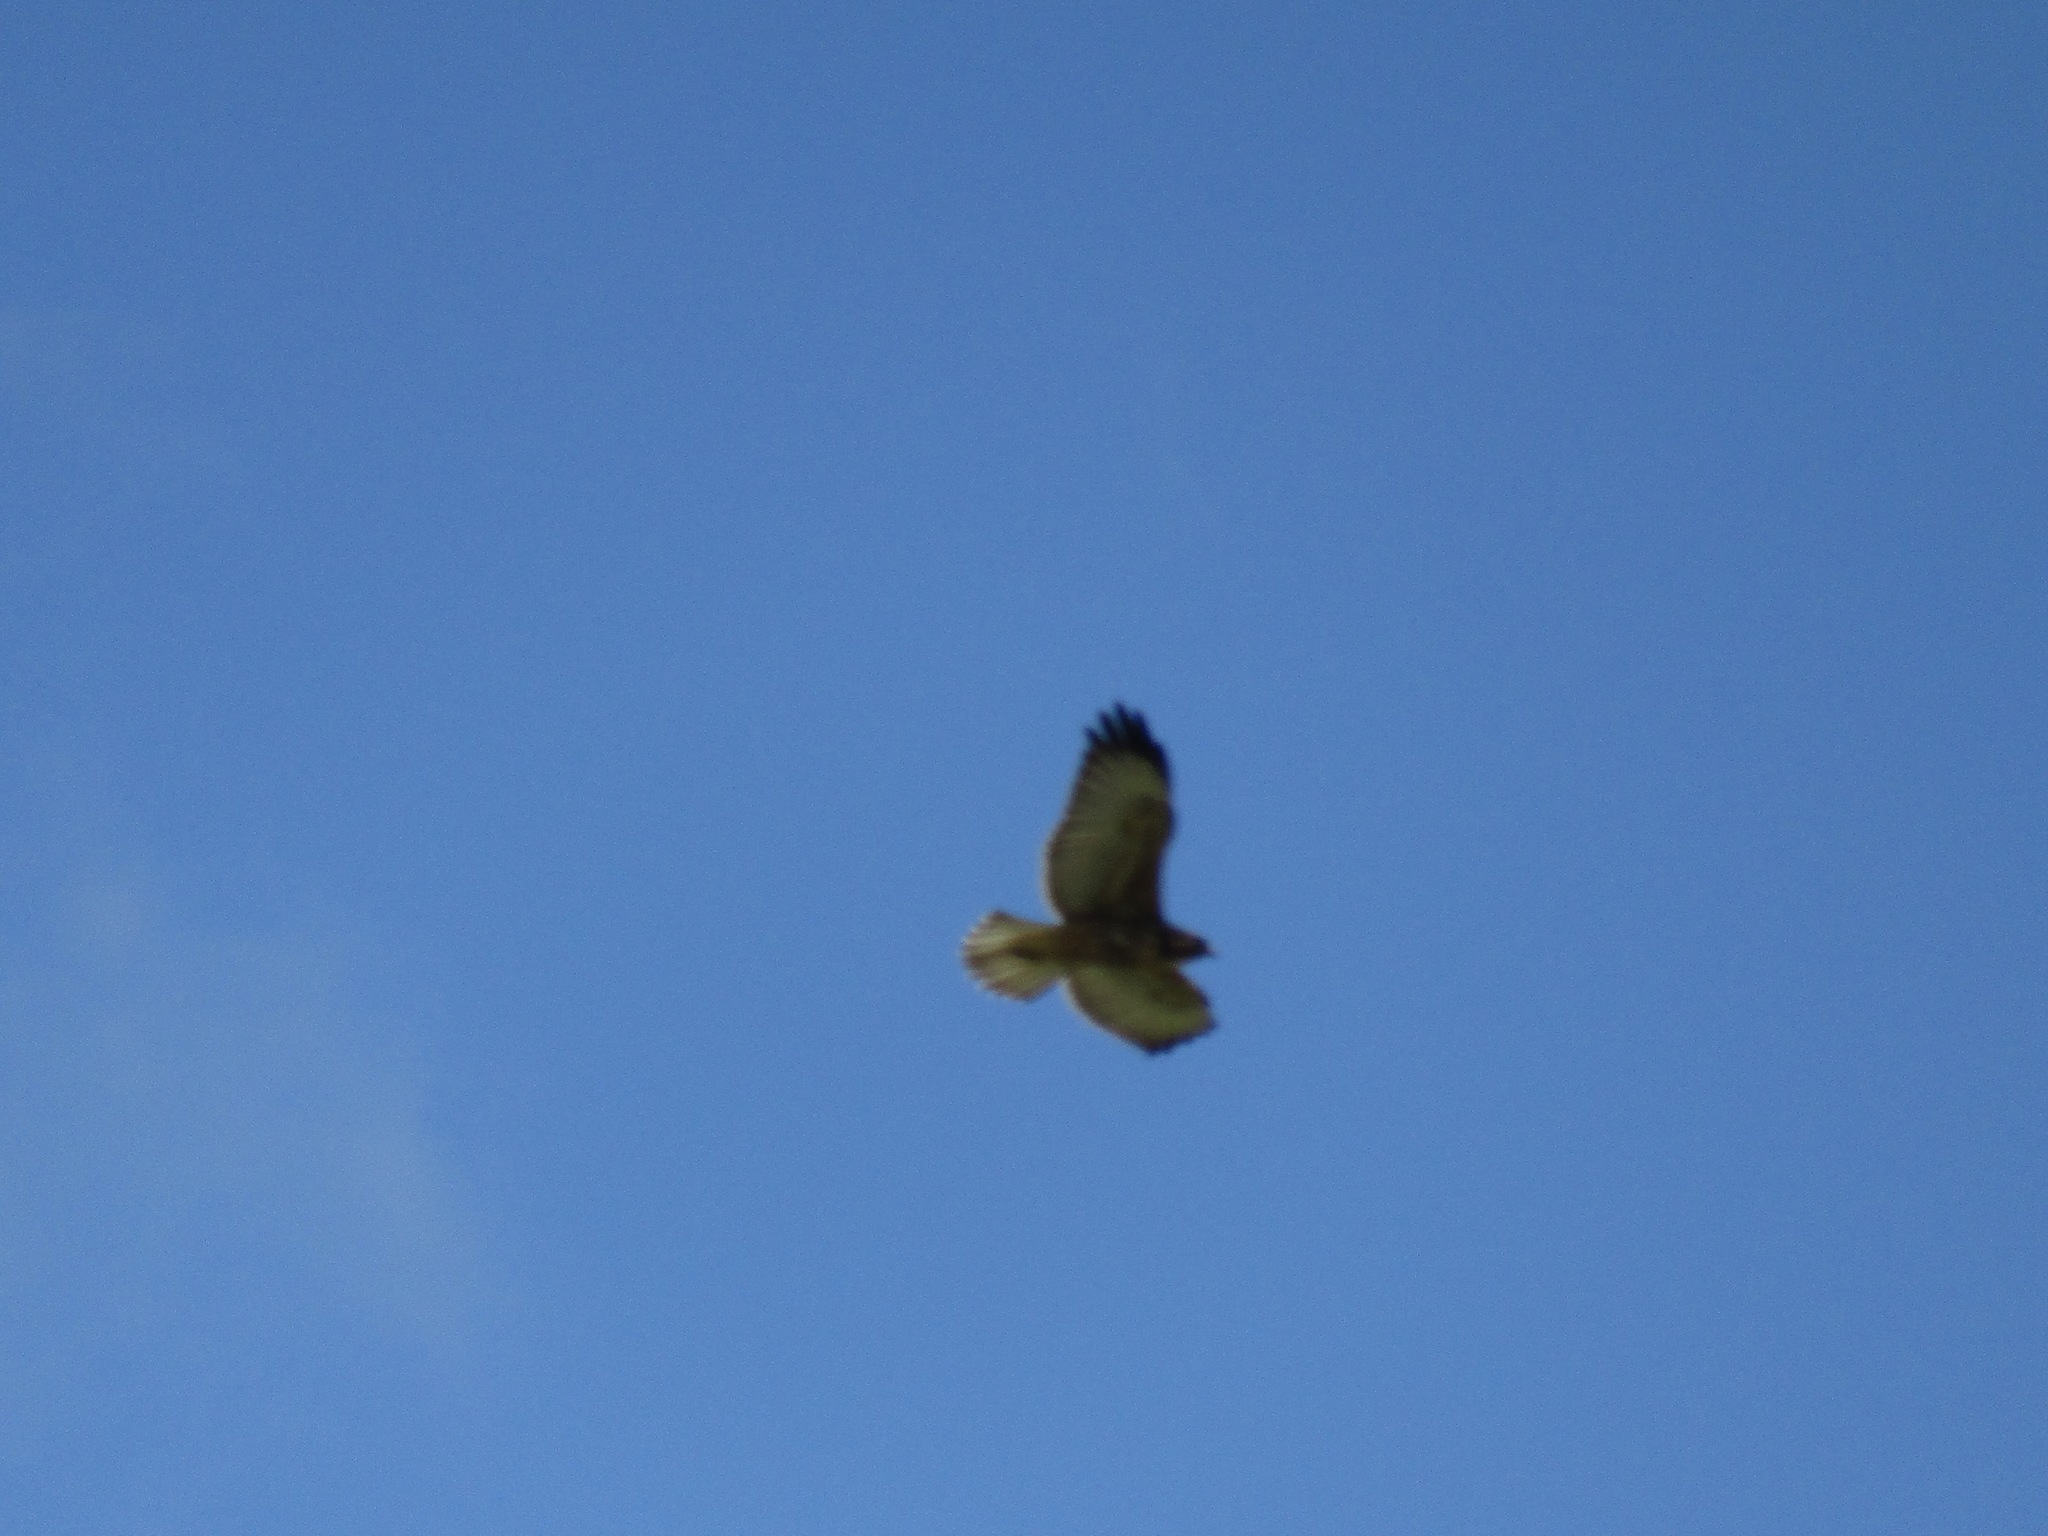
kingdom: Animalia
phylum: Chordata
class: Aves
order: Accipitriformes
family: Accipitridae
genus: Buteo
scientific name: Buteo swainsoni
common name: Swainson's hawk
